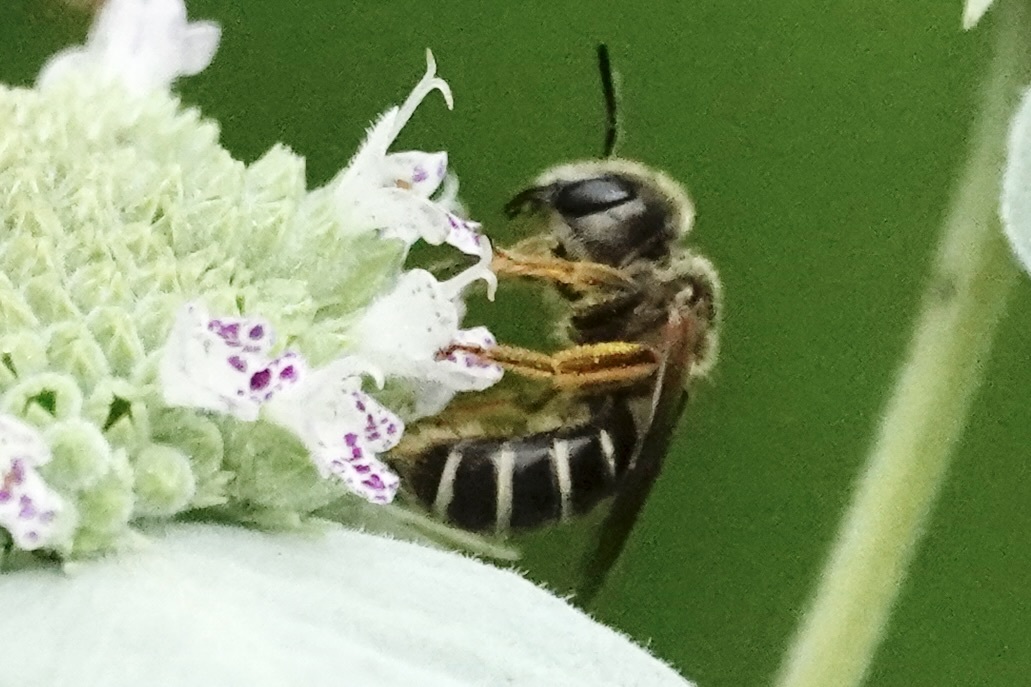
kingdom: Animalia
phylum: Arthropoda
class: Insecta
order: Hymenoptera
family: Halictidae
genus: Halictus
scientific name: Halictus ligatus
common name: Ligated furrow bee
